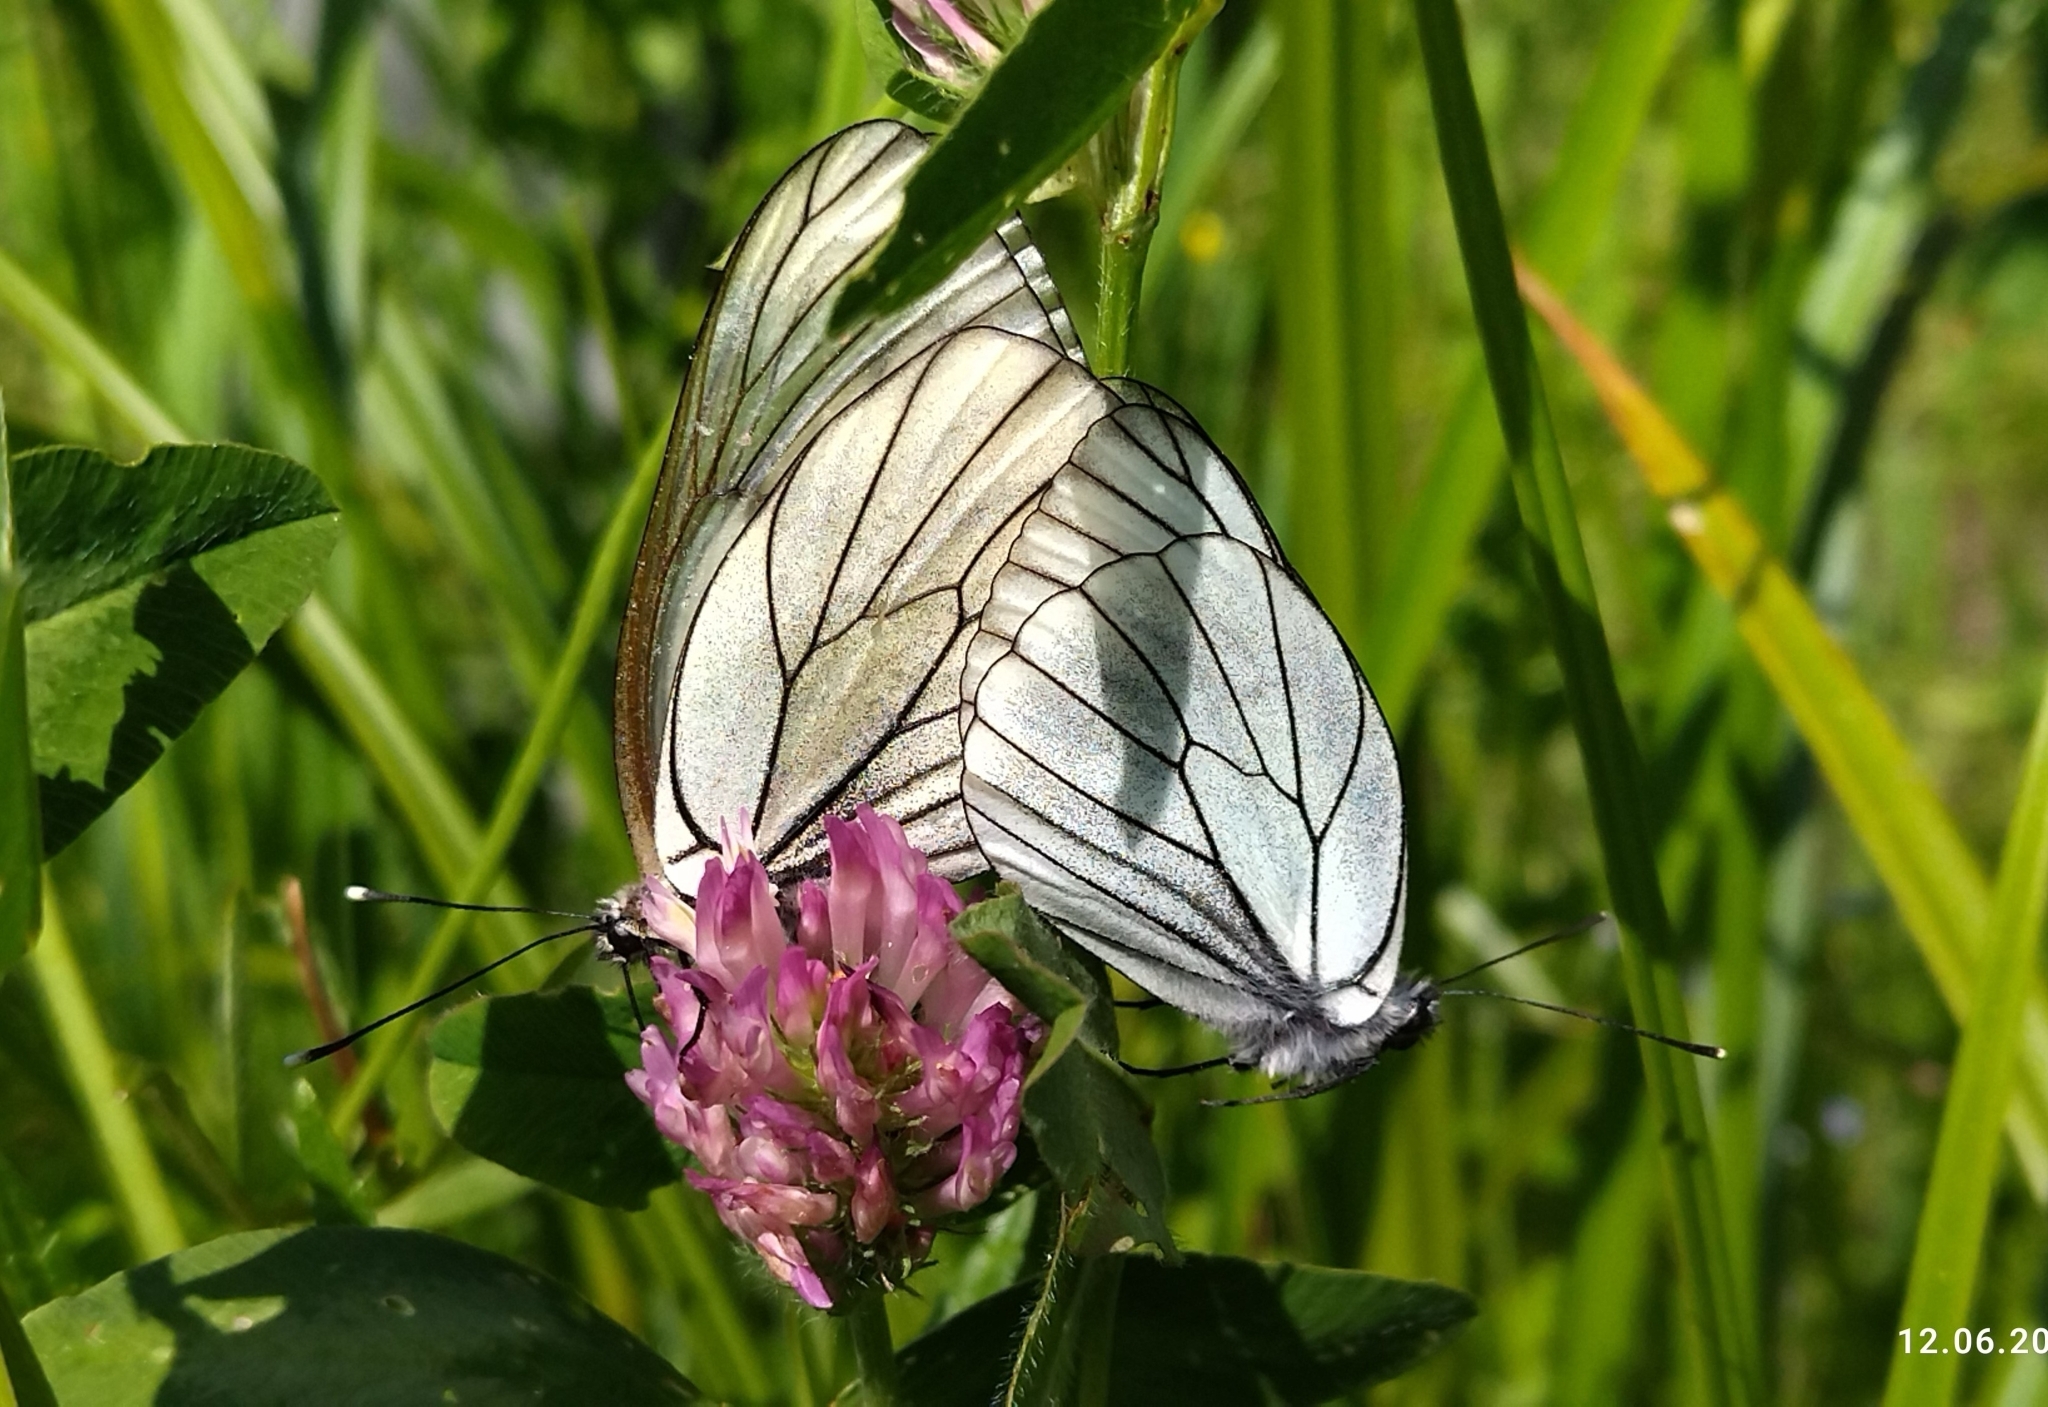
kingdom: Animalia
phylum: Arthropoda
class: Insecta
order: Lepidoptera
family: Pieridae
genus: Aporia
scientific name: Aporia crataegi
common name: Black-veined white
